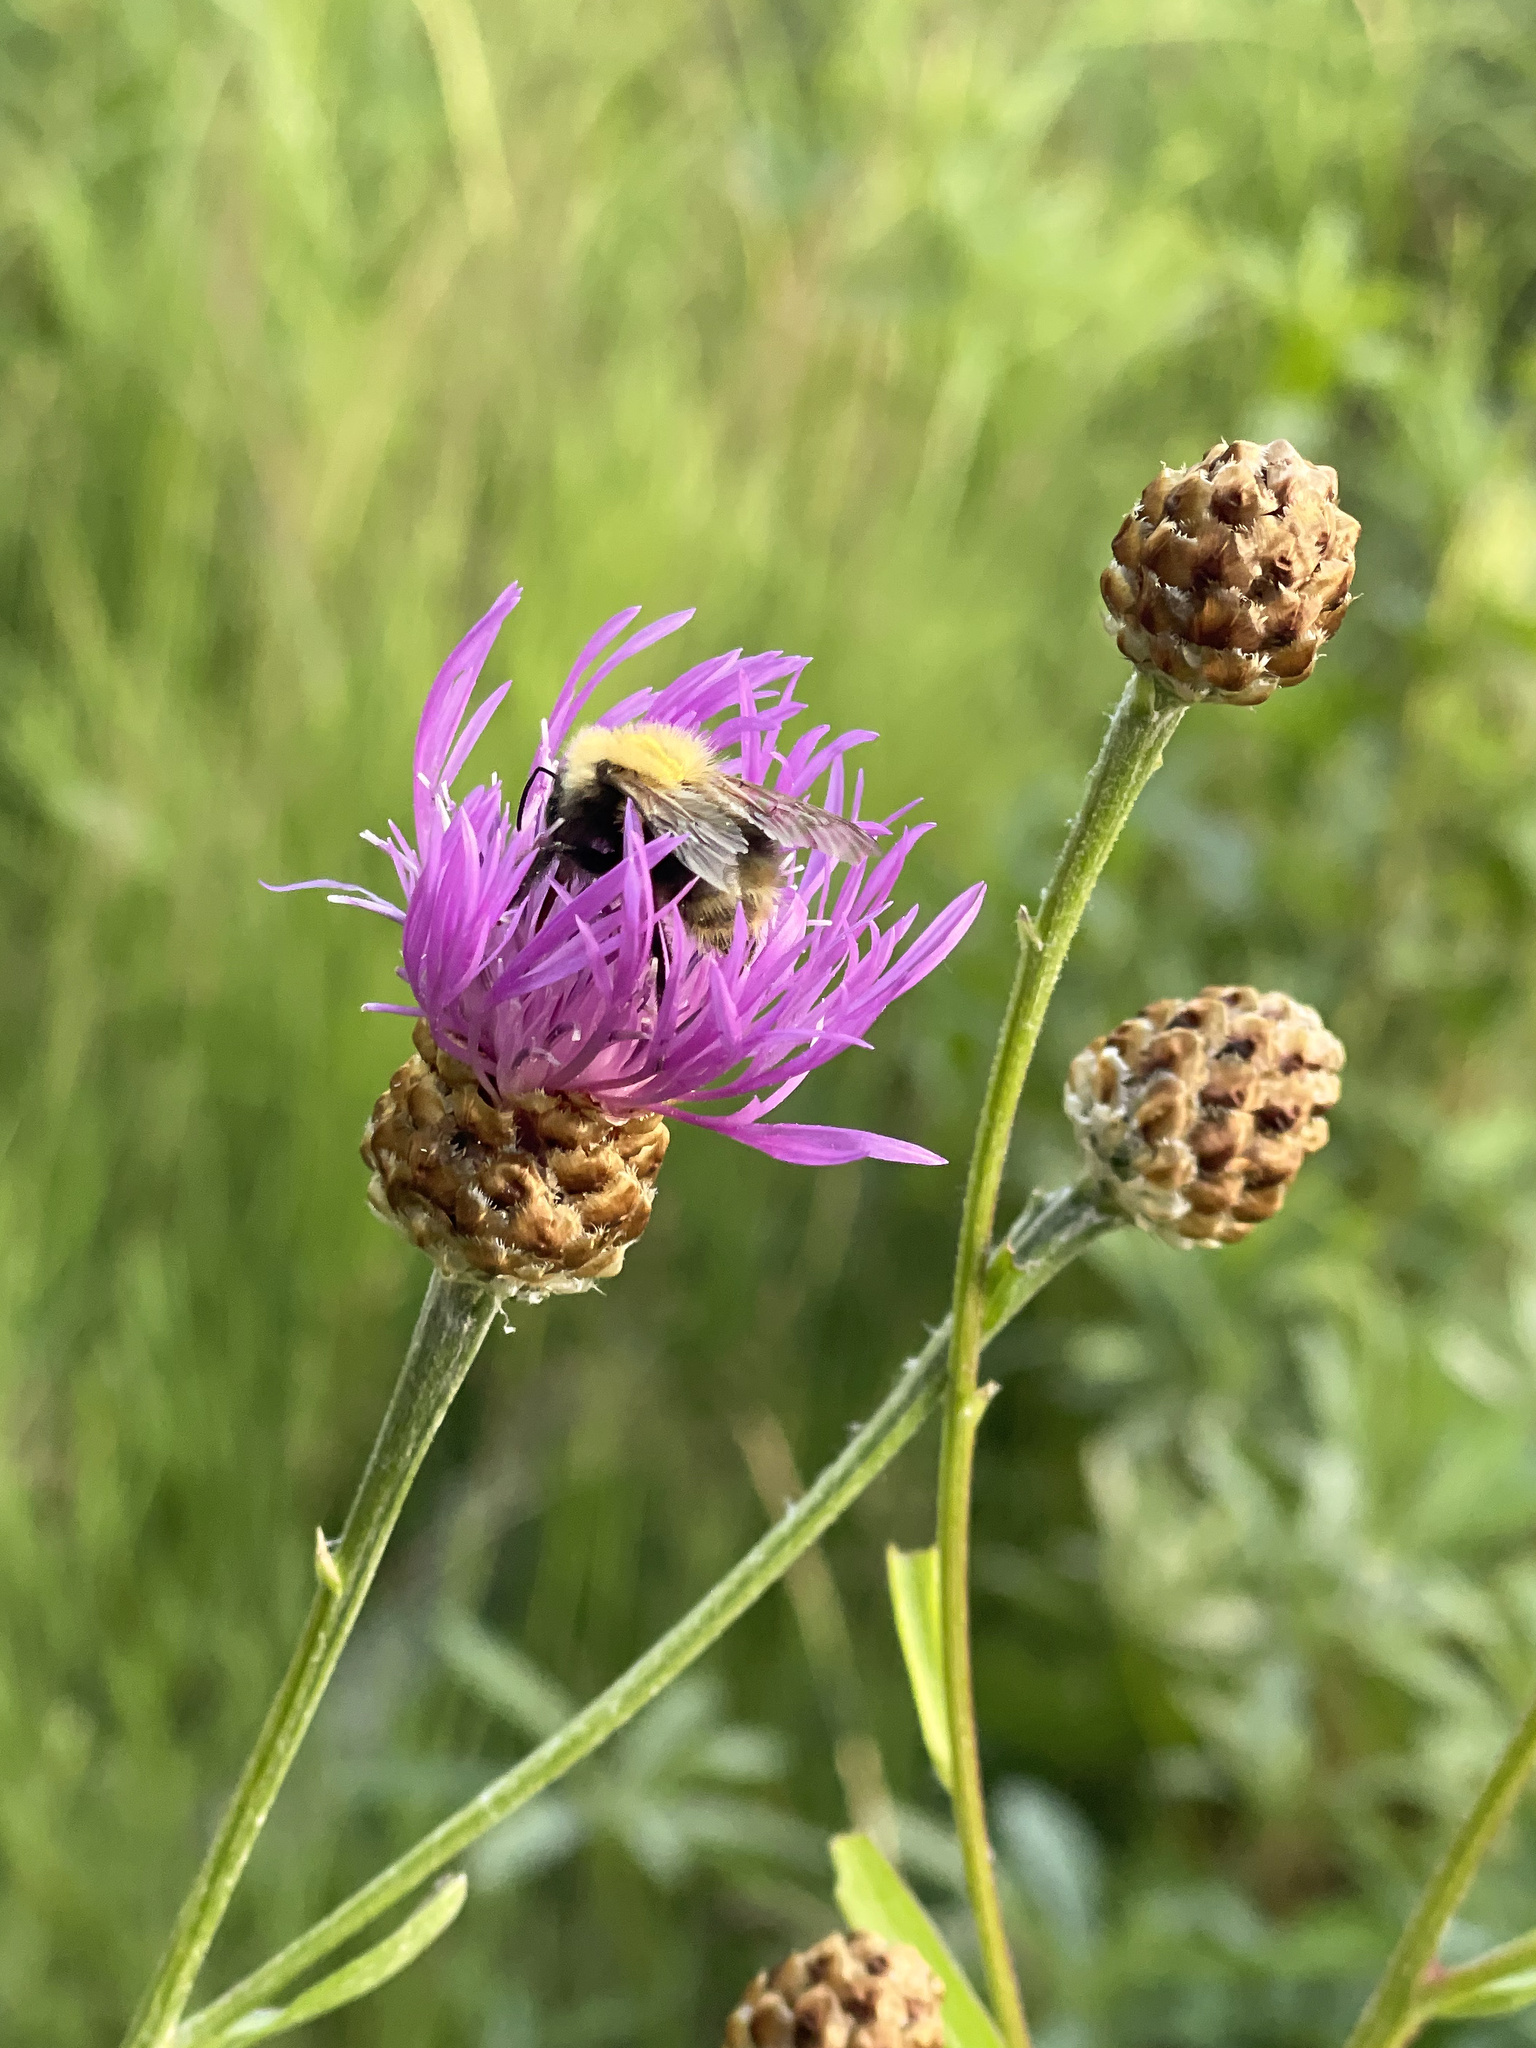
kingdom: Animalia
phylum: Arthropoda
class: Insecta
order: Hymenoptera
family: Apidae
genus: Bombus
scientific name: Bombus pascuorum
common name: Common carder bee
